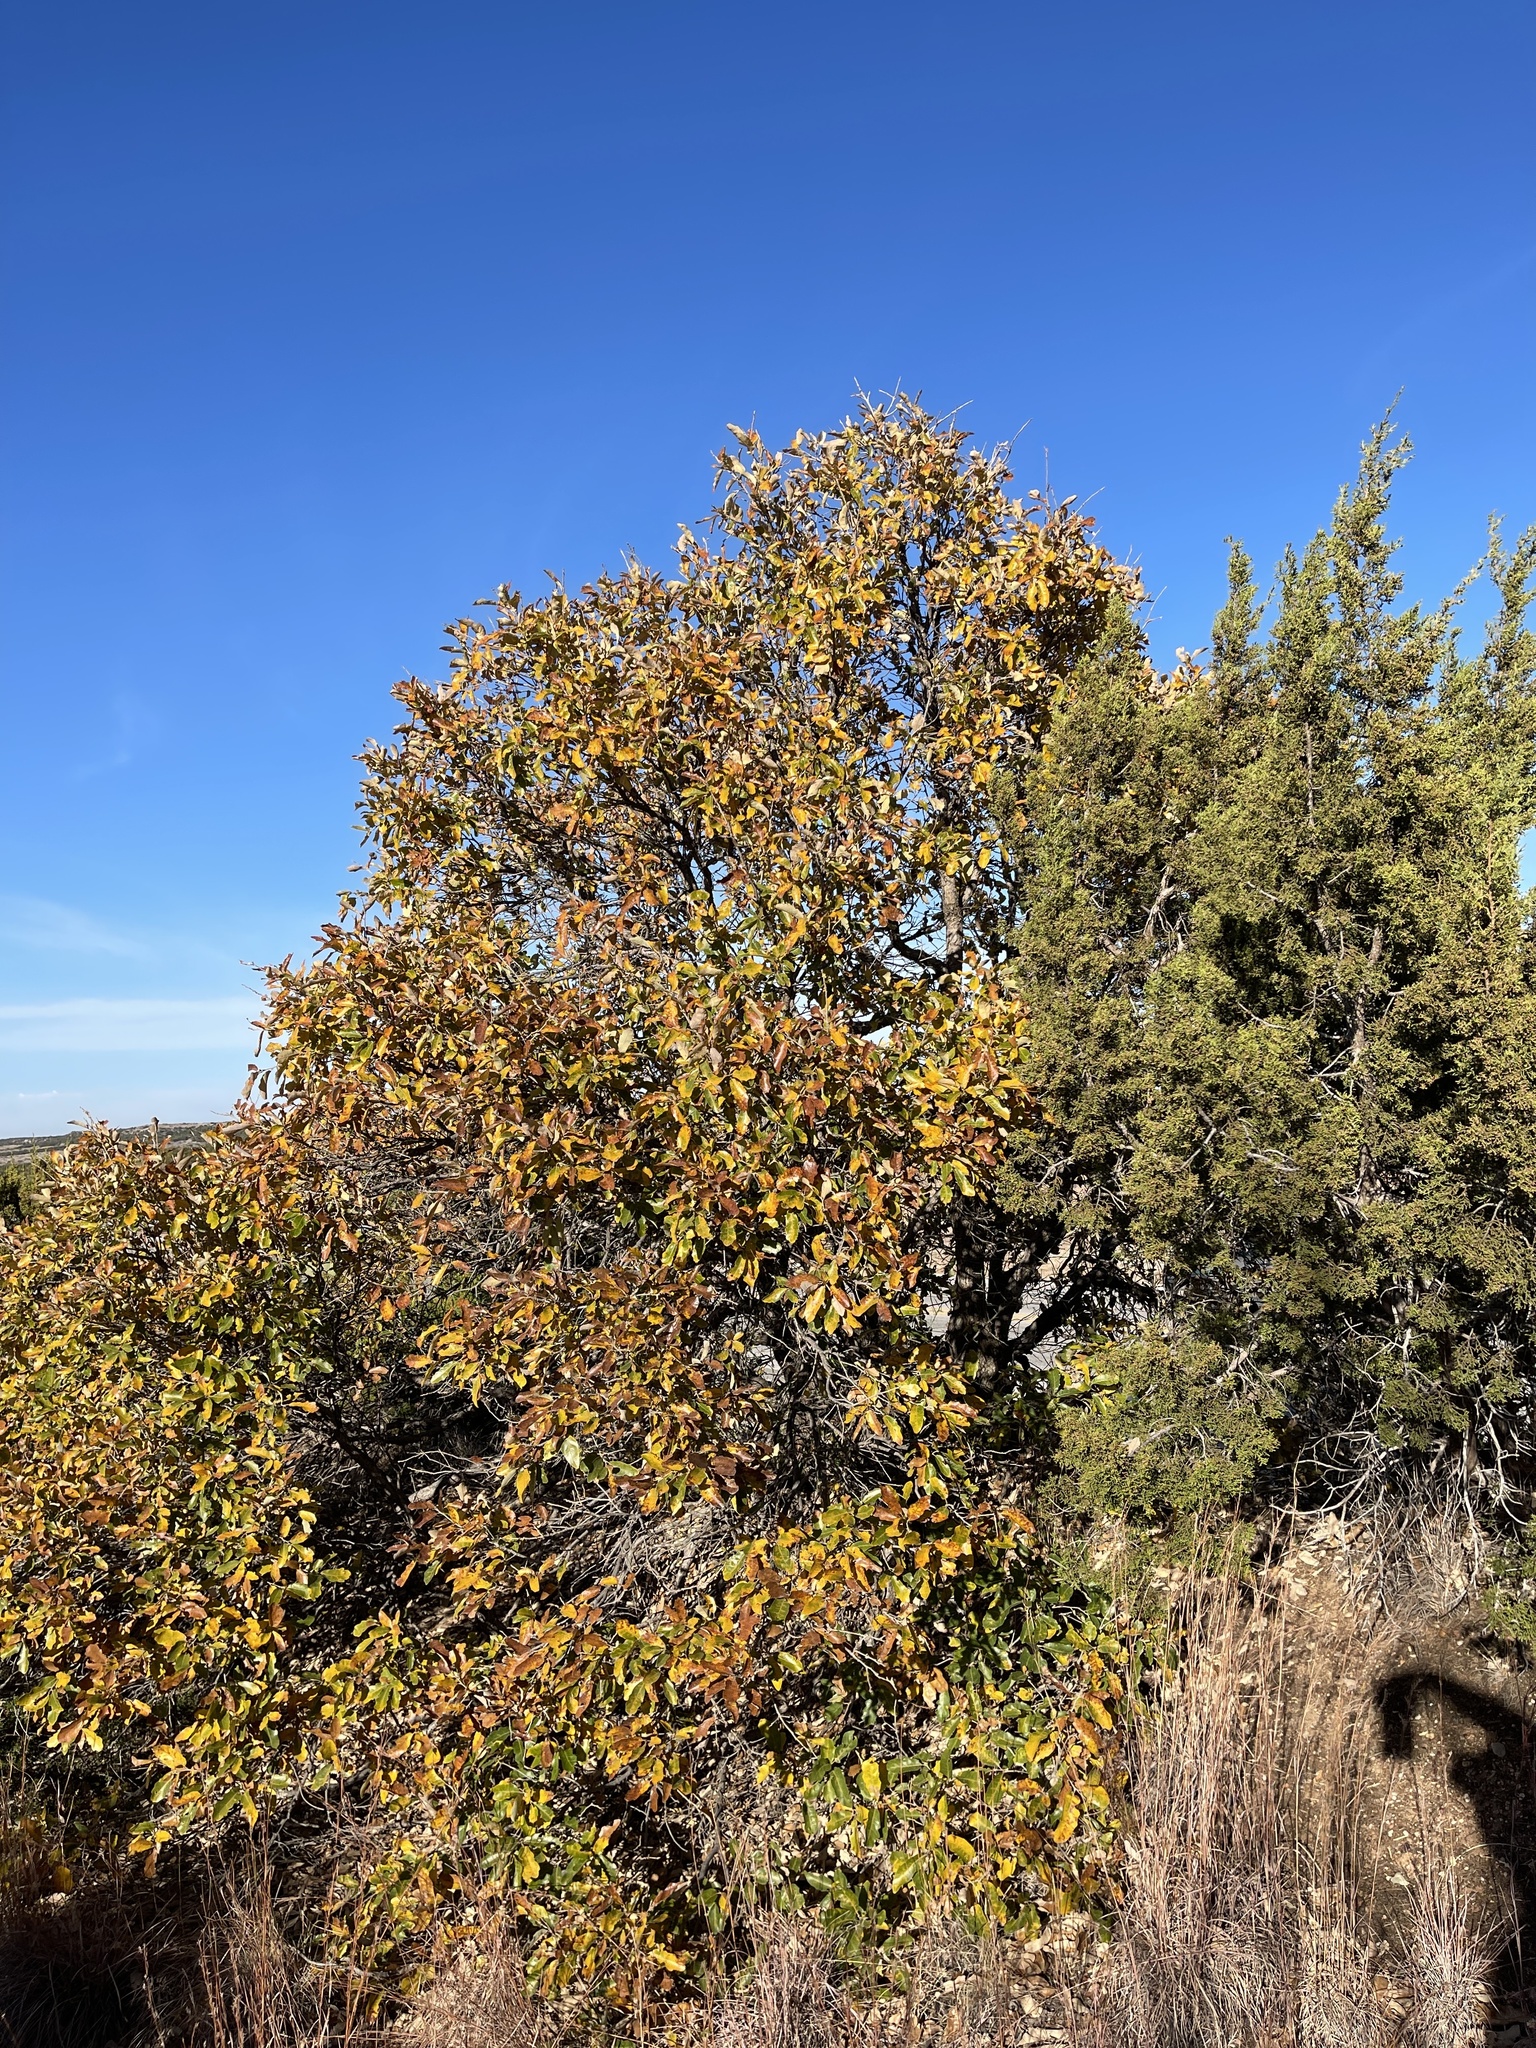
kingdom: Plantae
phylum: Tracheophyta
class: Magnoliopsida
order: Fagales
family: Fagaceae
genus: Quercus
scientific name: Quercus sinuata
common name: Durand oak
